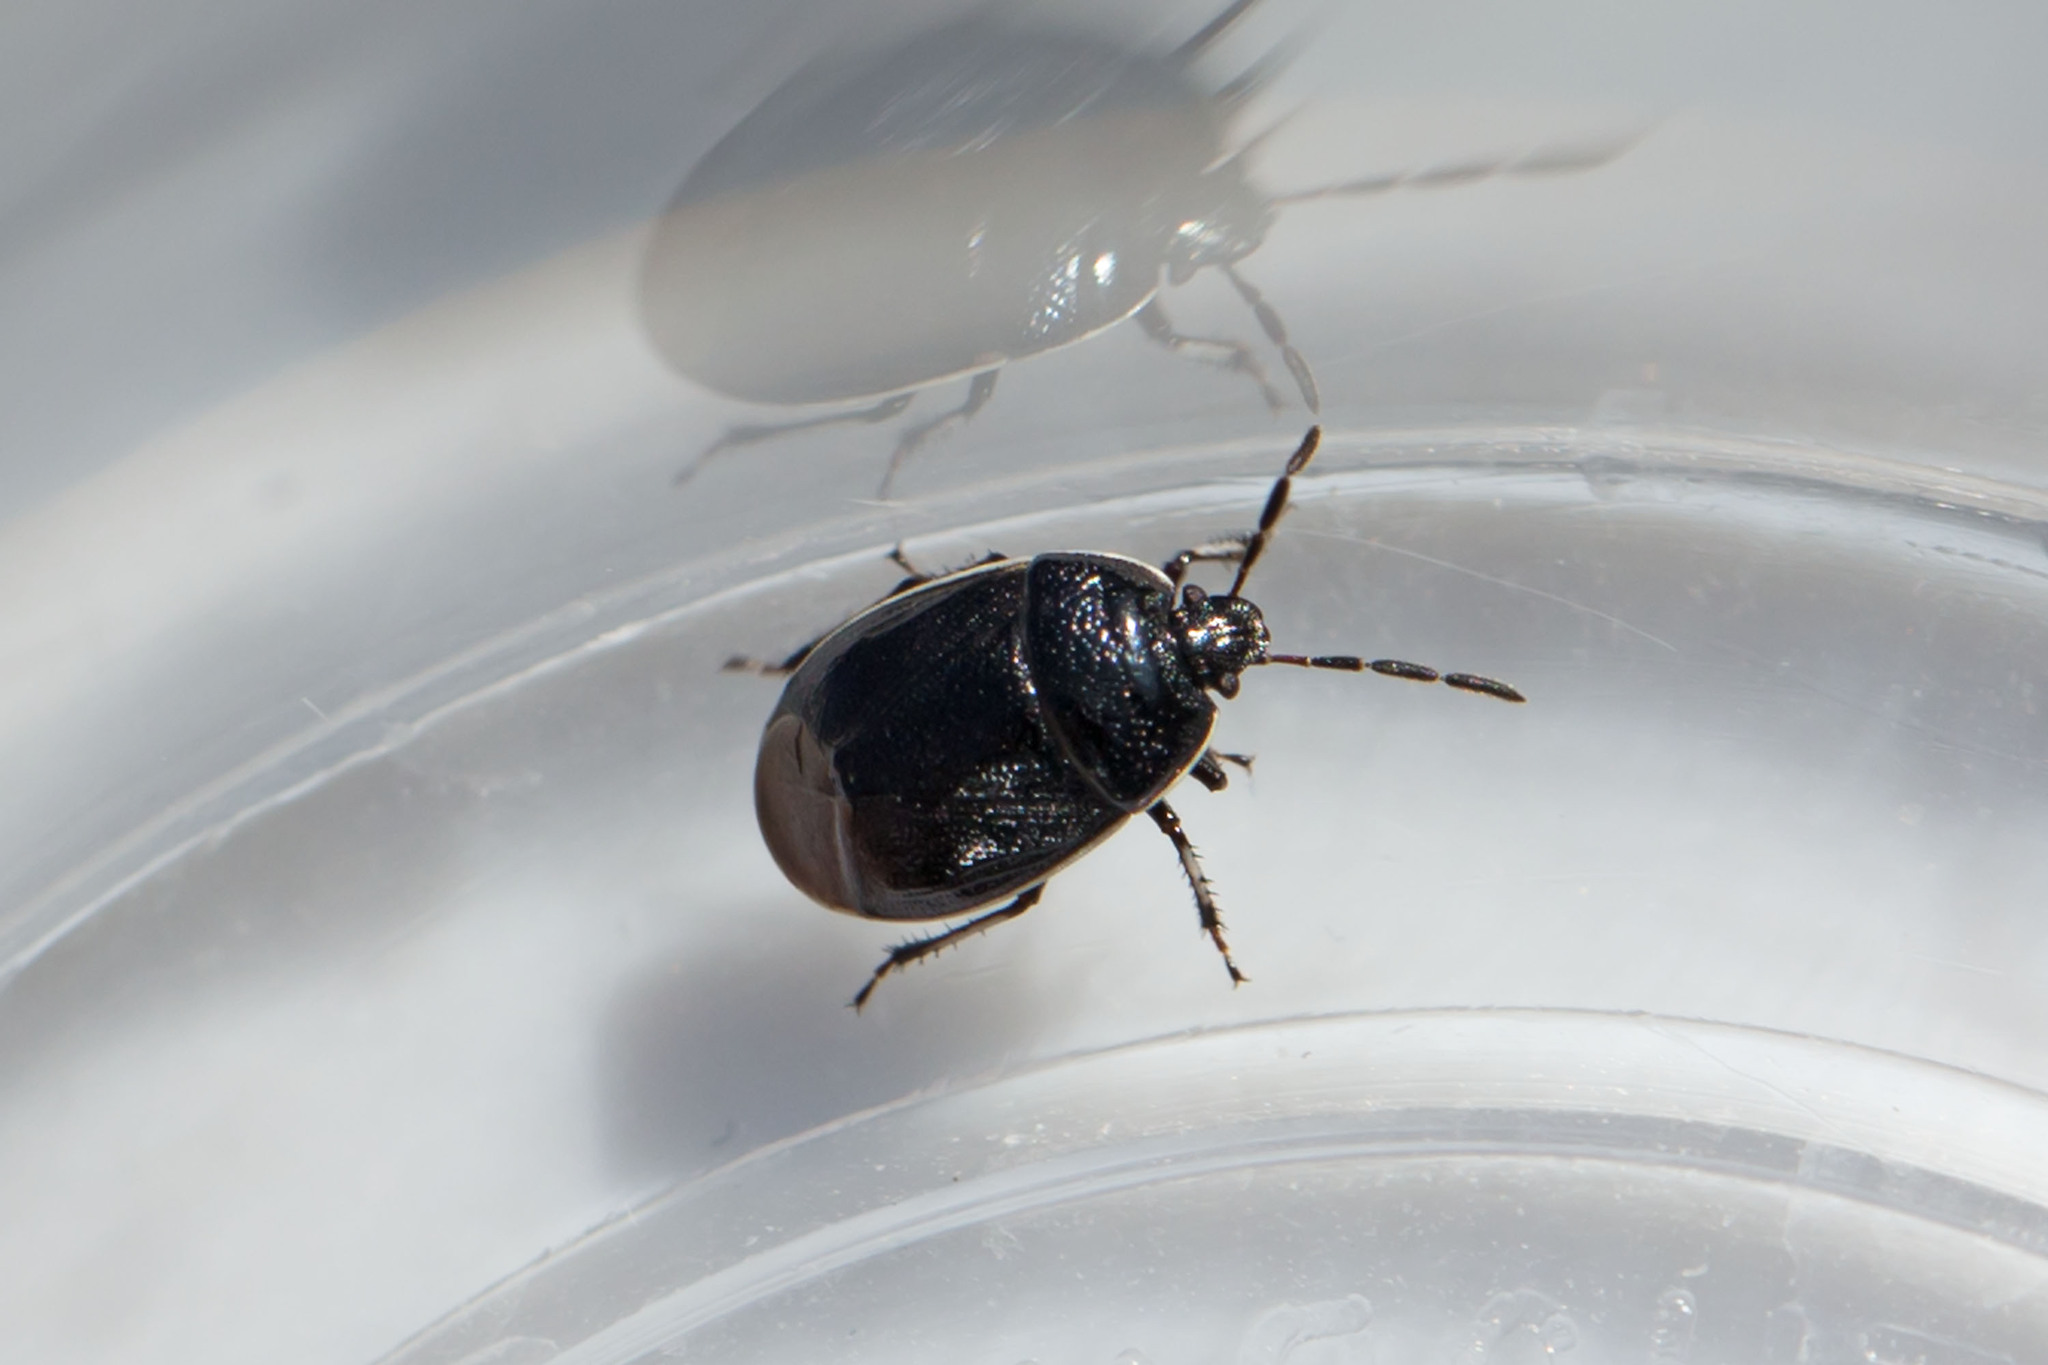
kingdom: Animalia
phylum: Arthropoda
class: Insecta
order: Hemiptera
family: Cydnidae
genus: Sehirus
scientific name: Sehirus cinctus
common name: White-margined burrower bug
